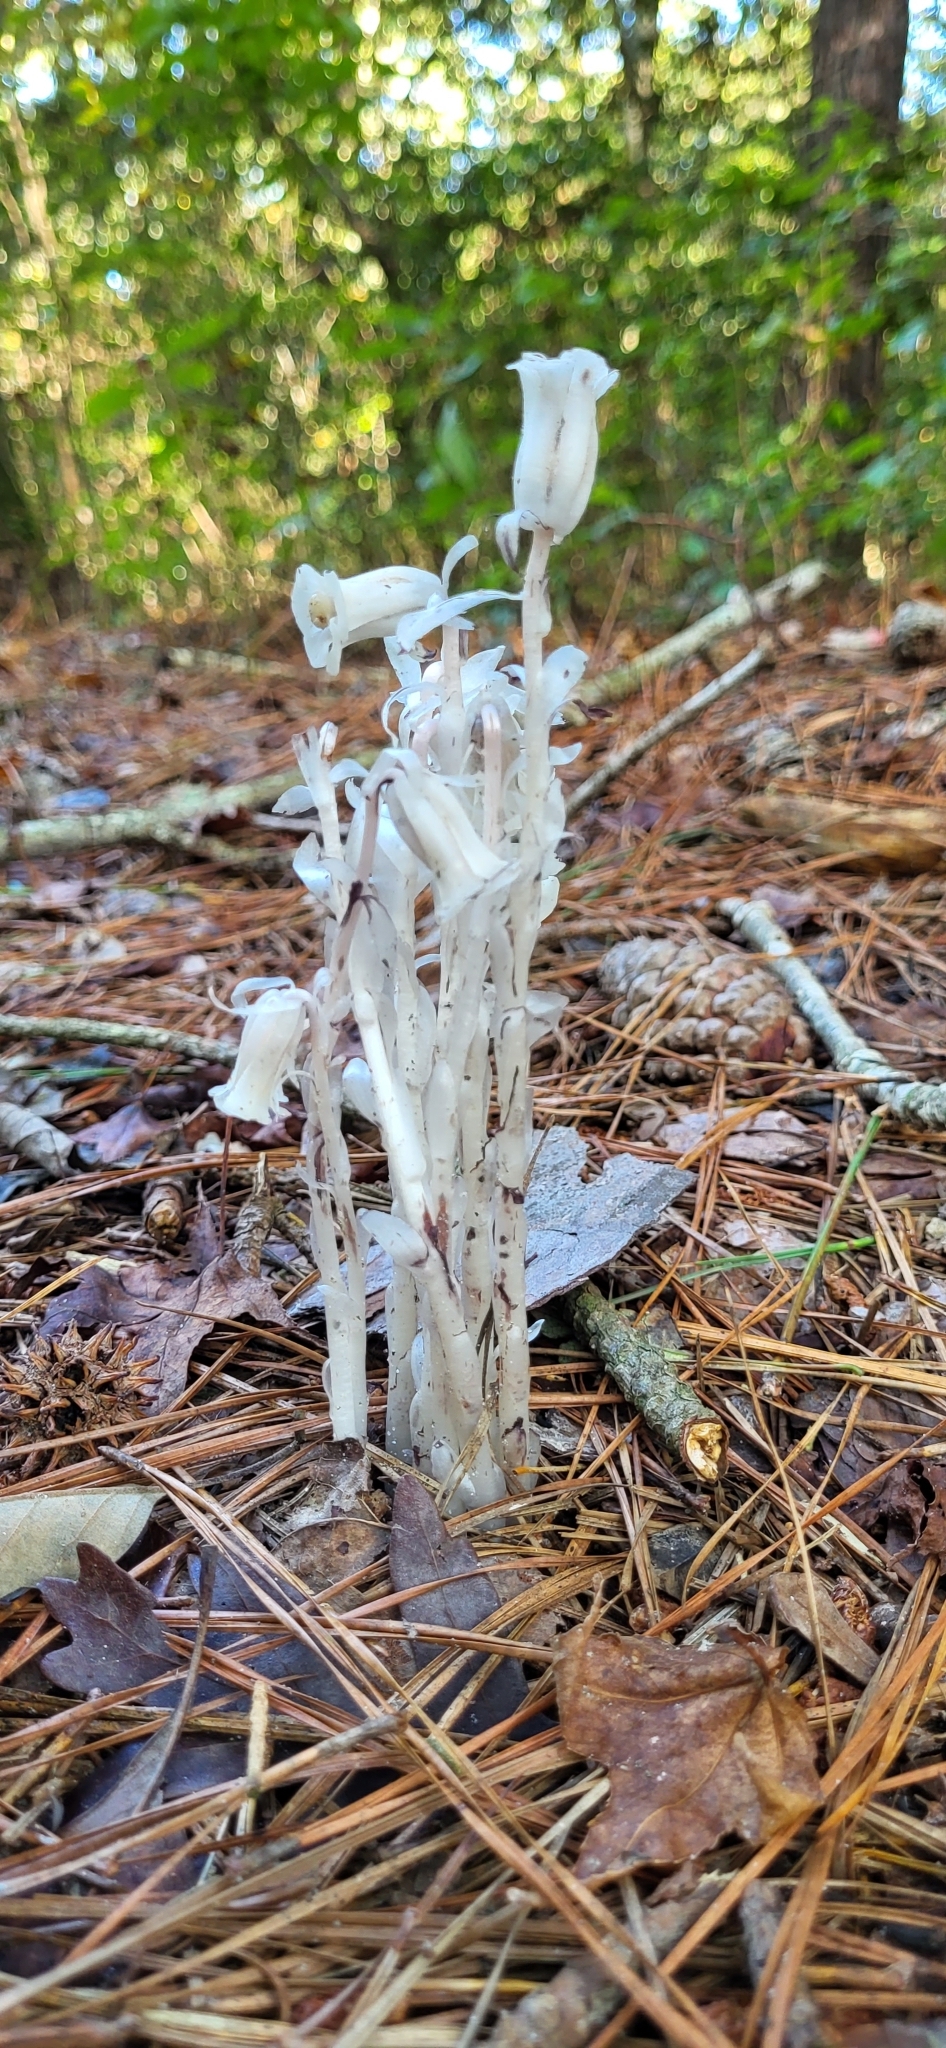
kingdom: Plantae
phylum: Tracheophyta
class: Magnoliopsida
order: Ericales
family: Ericaceae
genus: Monotropa
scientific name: Monotropa uniflora
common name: Convulsion root
